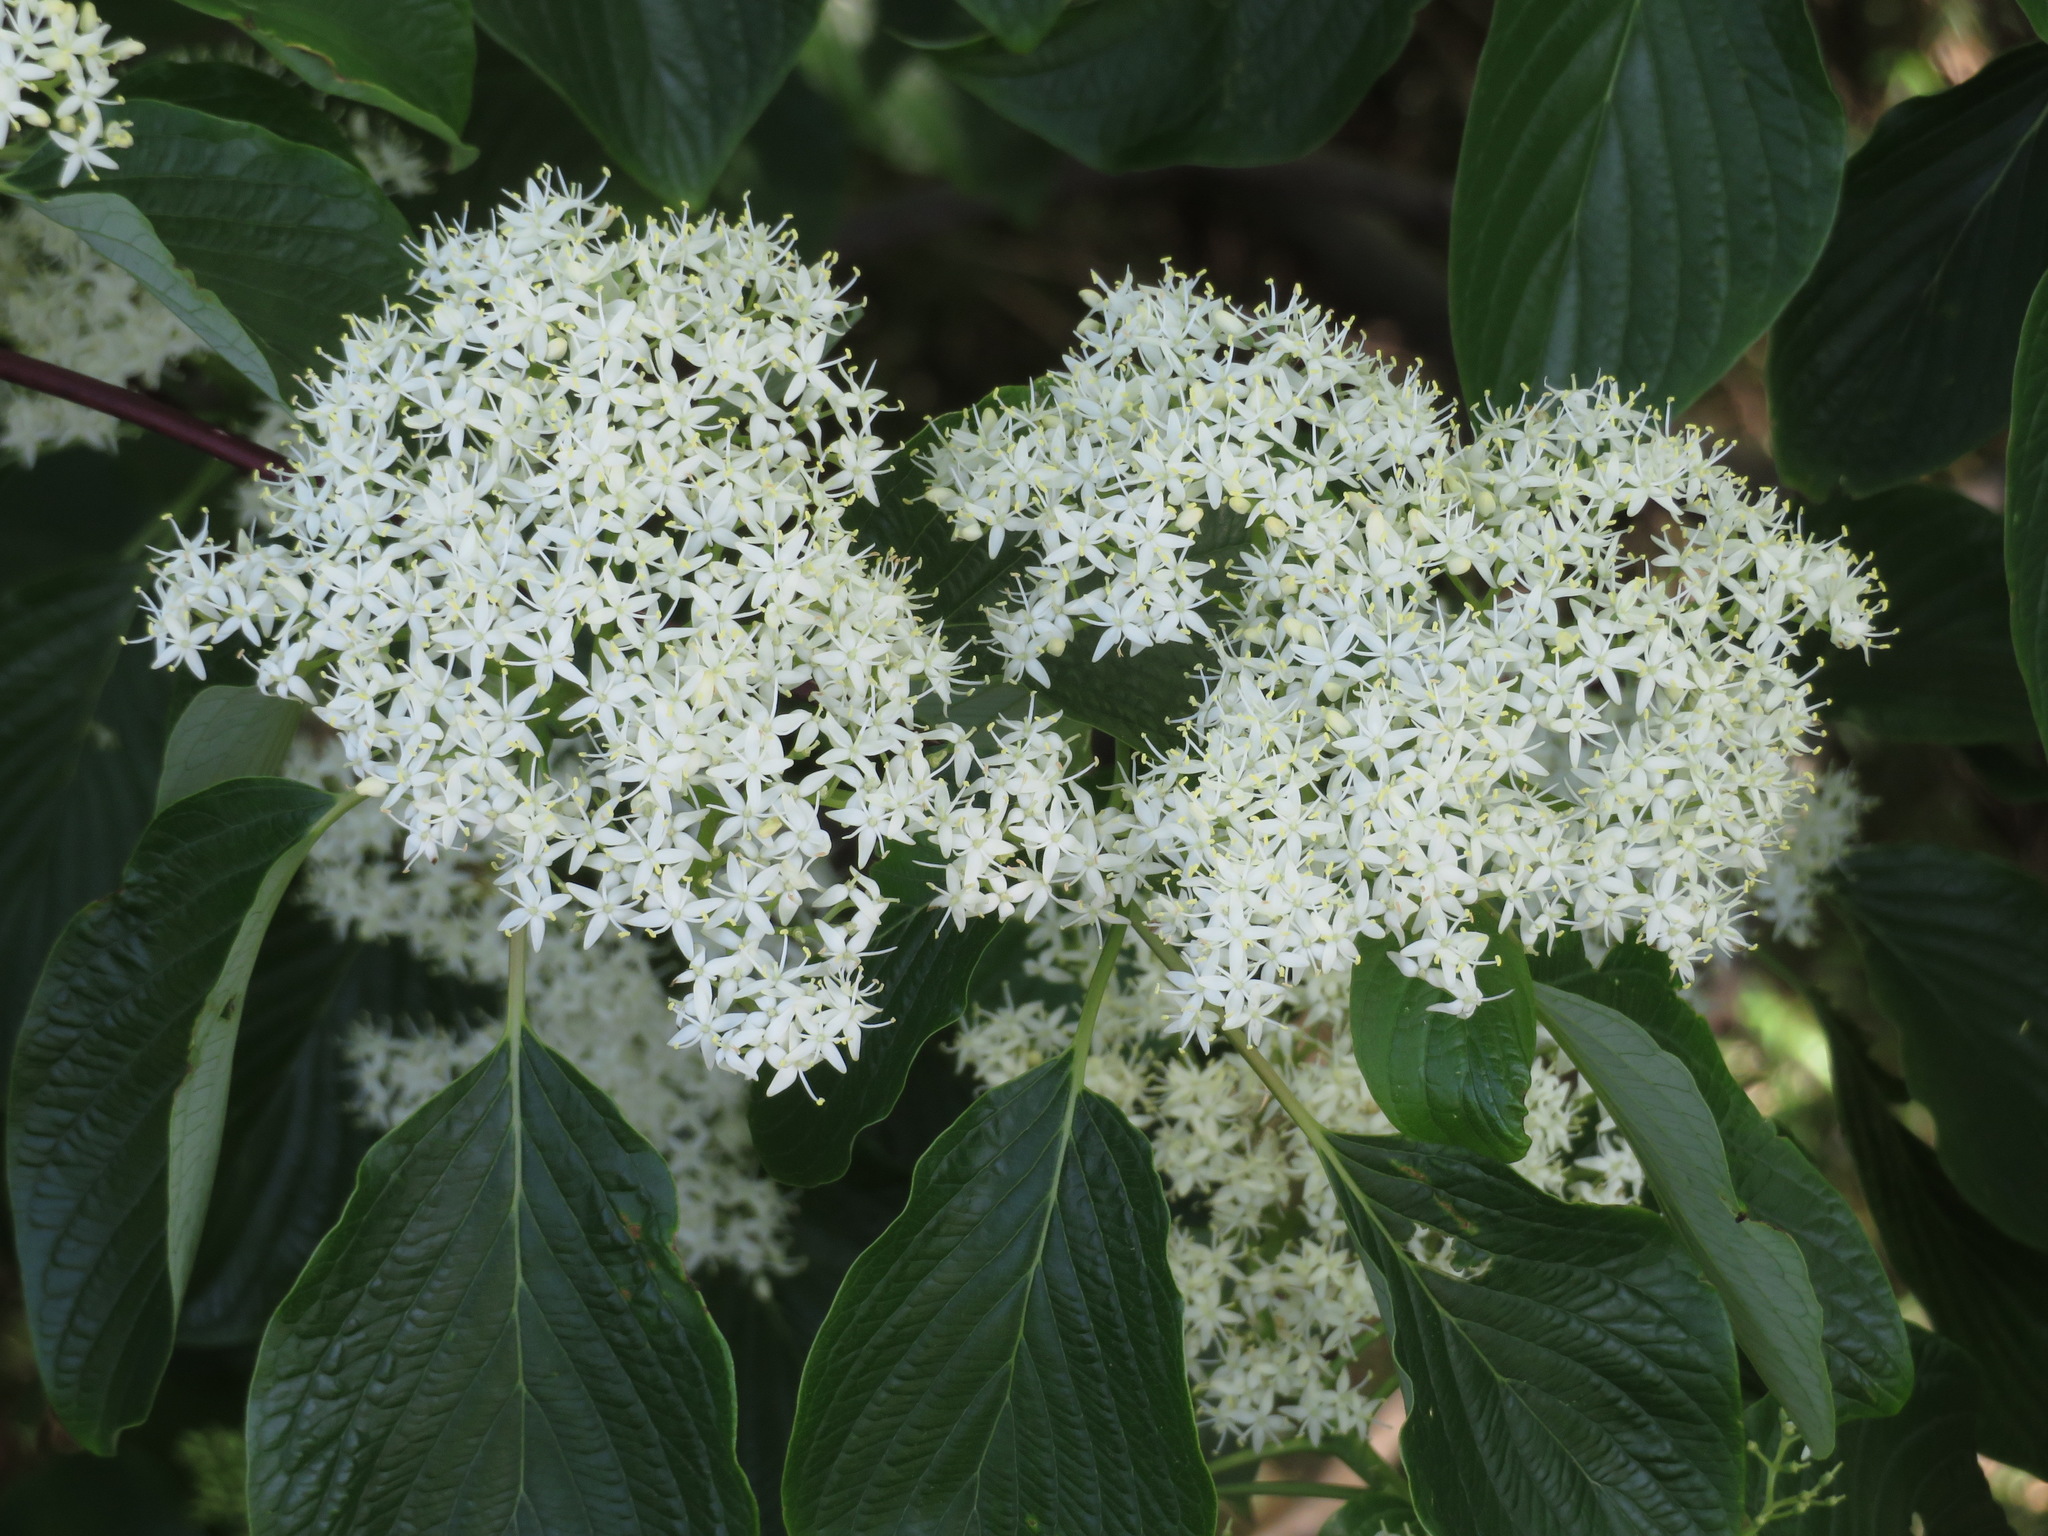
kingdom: Plantae
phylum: Tracheophyta
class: Magnoliopsida
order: Cornales
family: Cornaceae
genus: Cornus
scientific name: Cornus controversa
